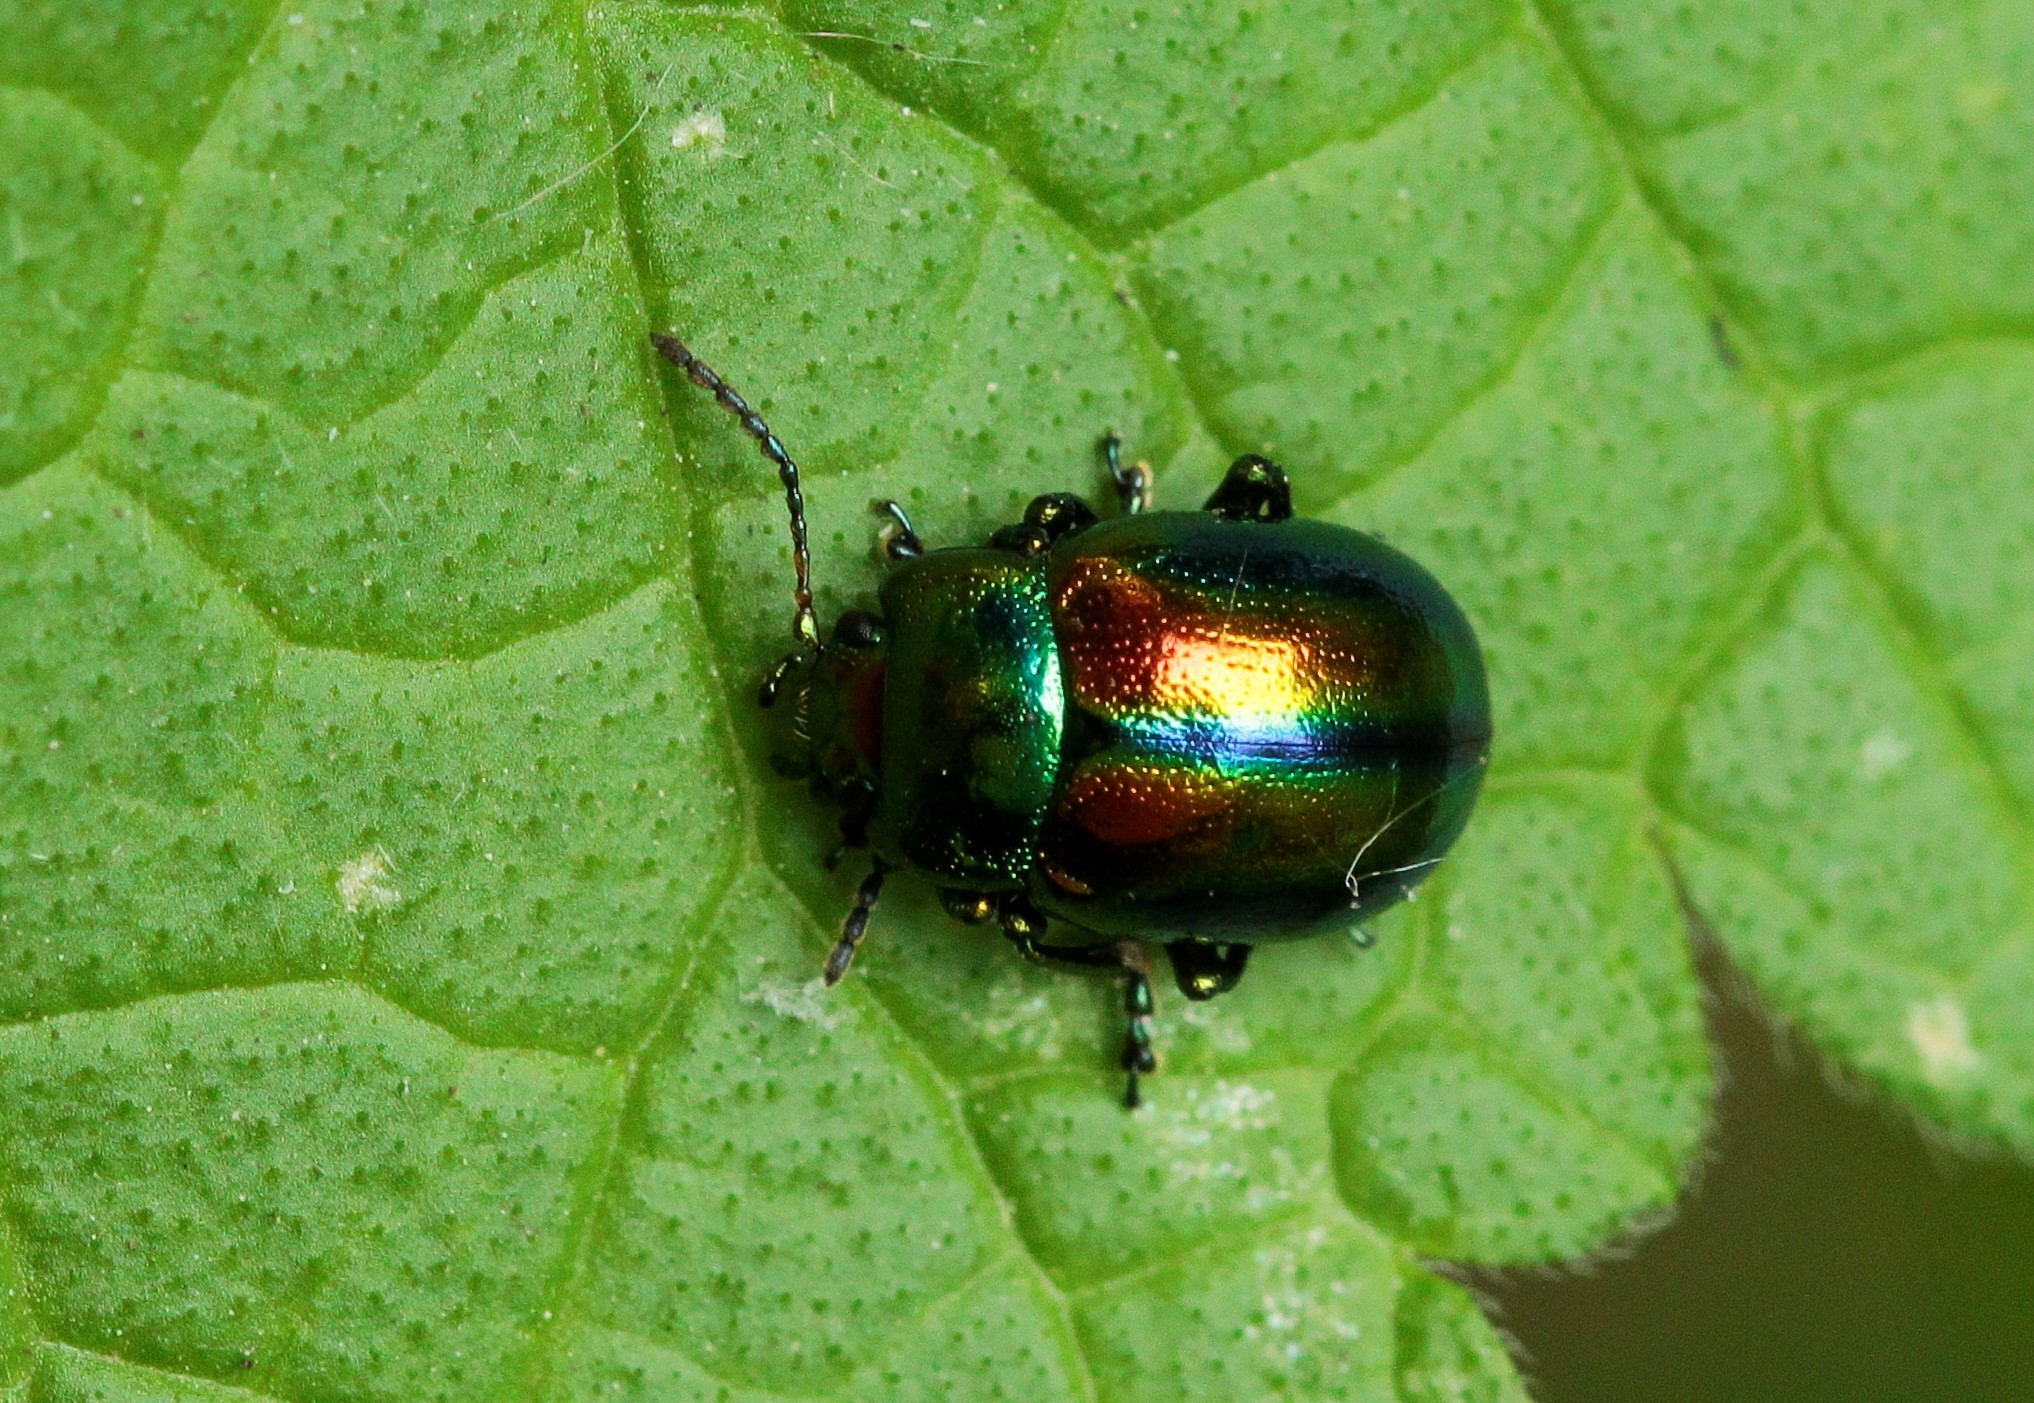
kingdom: Animalia
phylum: Arthropoda
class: Insecta
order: Coleoptera
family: Chrysomelidae
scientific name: Chrysomelidae
